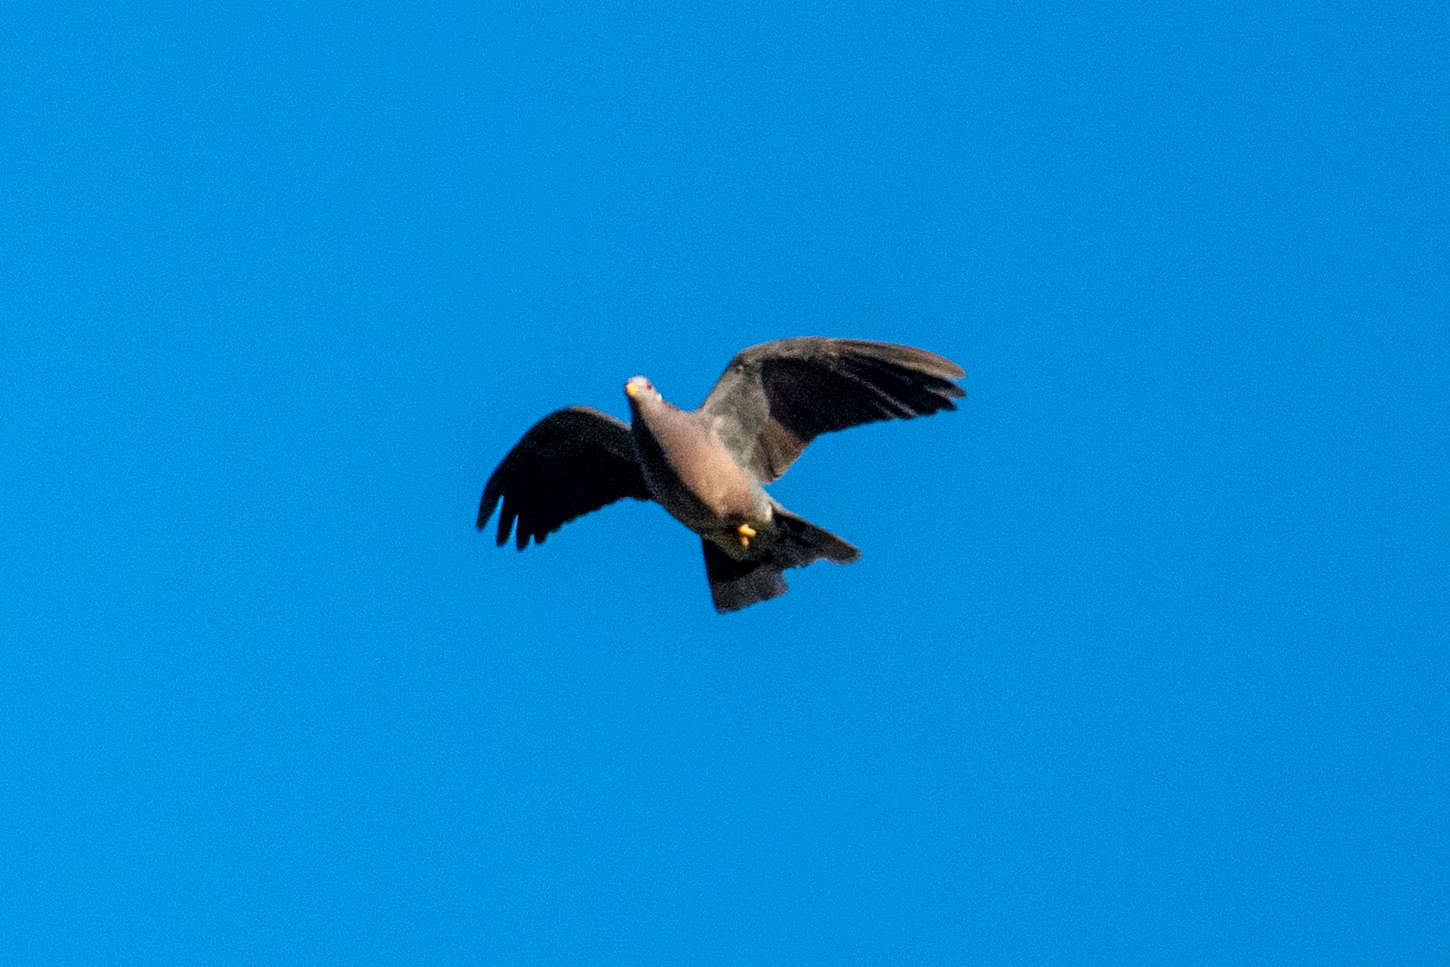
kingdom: Animalia
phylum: Chordata
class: Aves
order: Columbiformes
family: Columbidae
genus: Patagioenas
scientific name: Patagioenas fasciata
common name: Band-tailed pigeon
